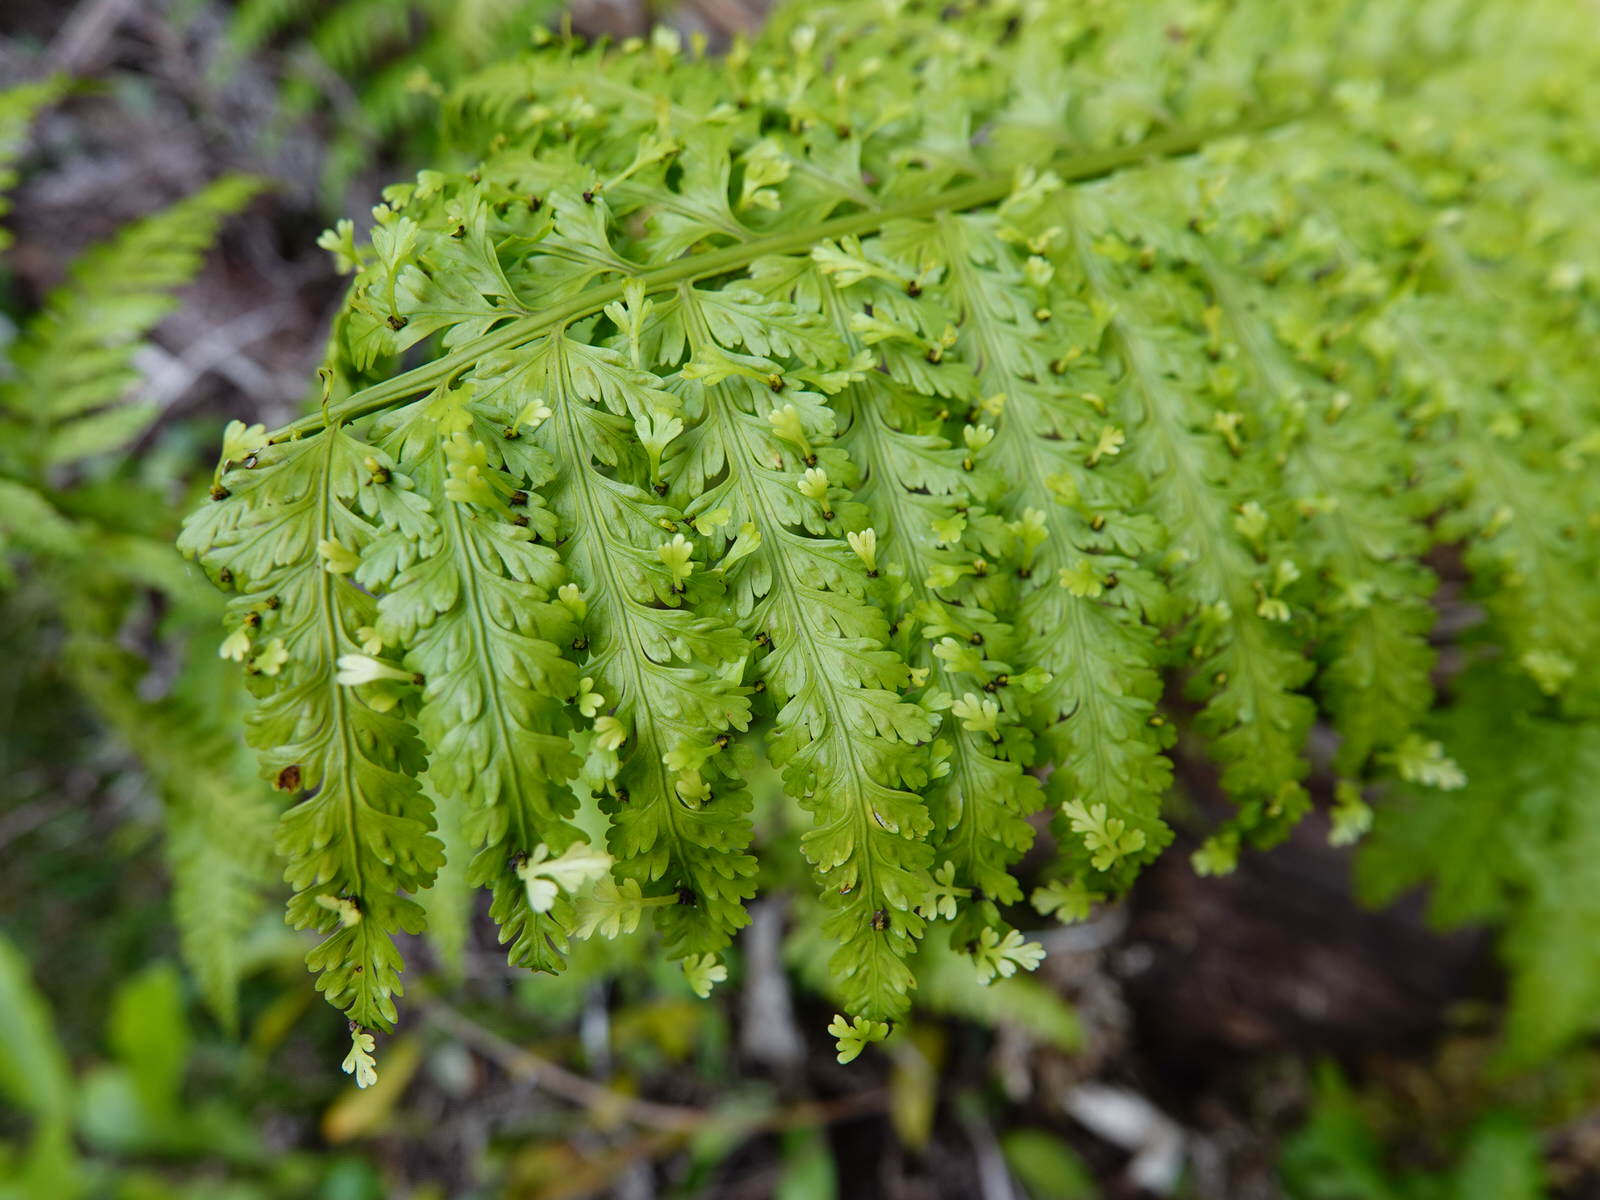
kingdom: Plantae
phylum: Tracheophyta
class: Polypodiopsida
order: Polypodiales
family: Aspleniaceae
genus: Asplenium
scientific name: Asplenium bulbiferum
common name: Mother fern
